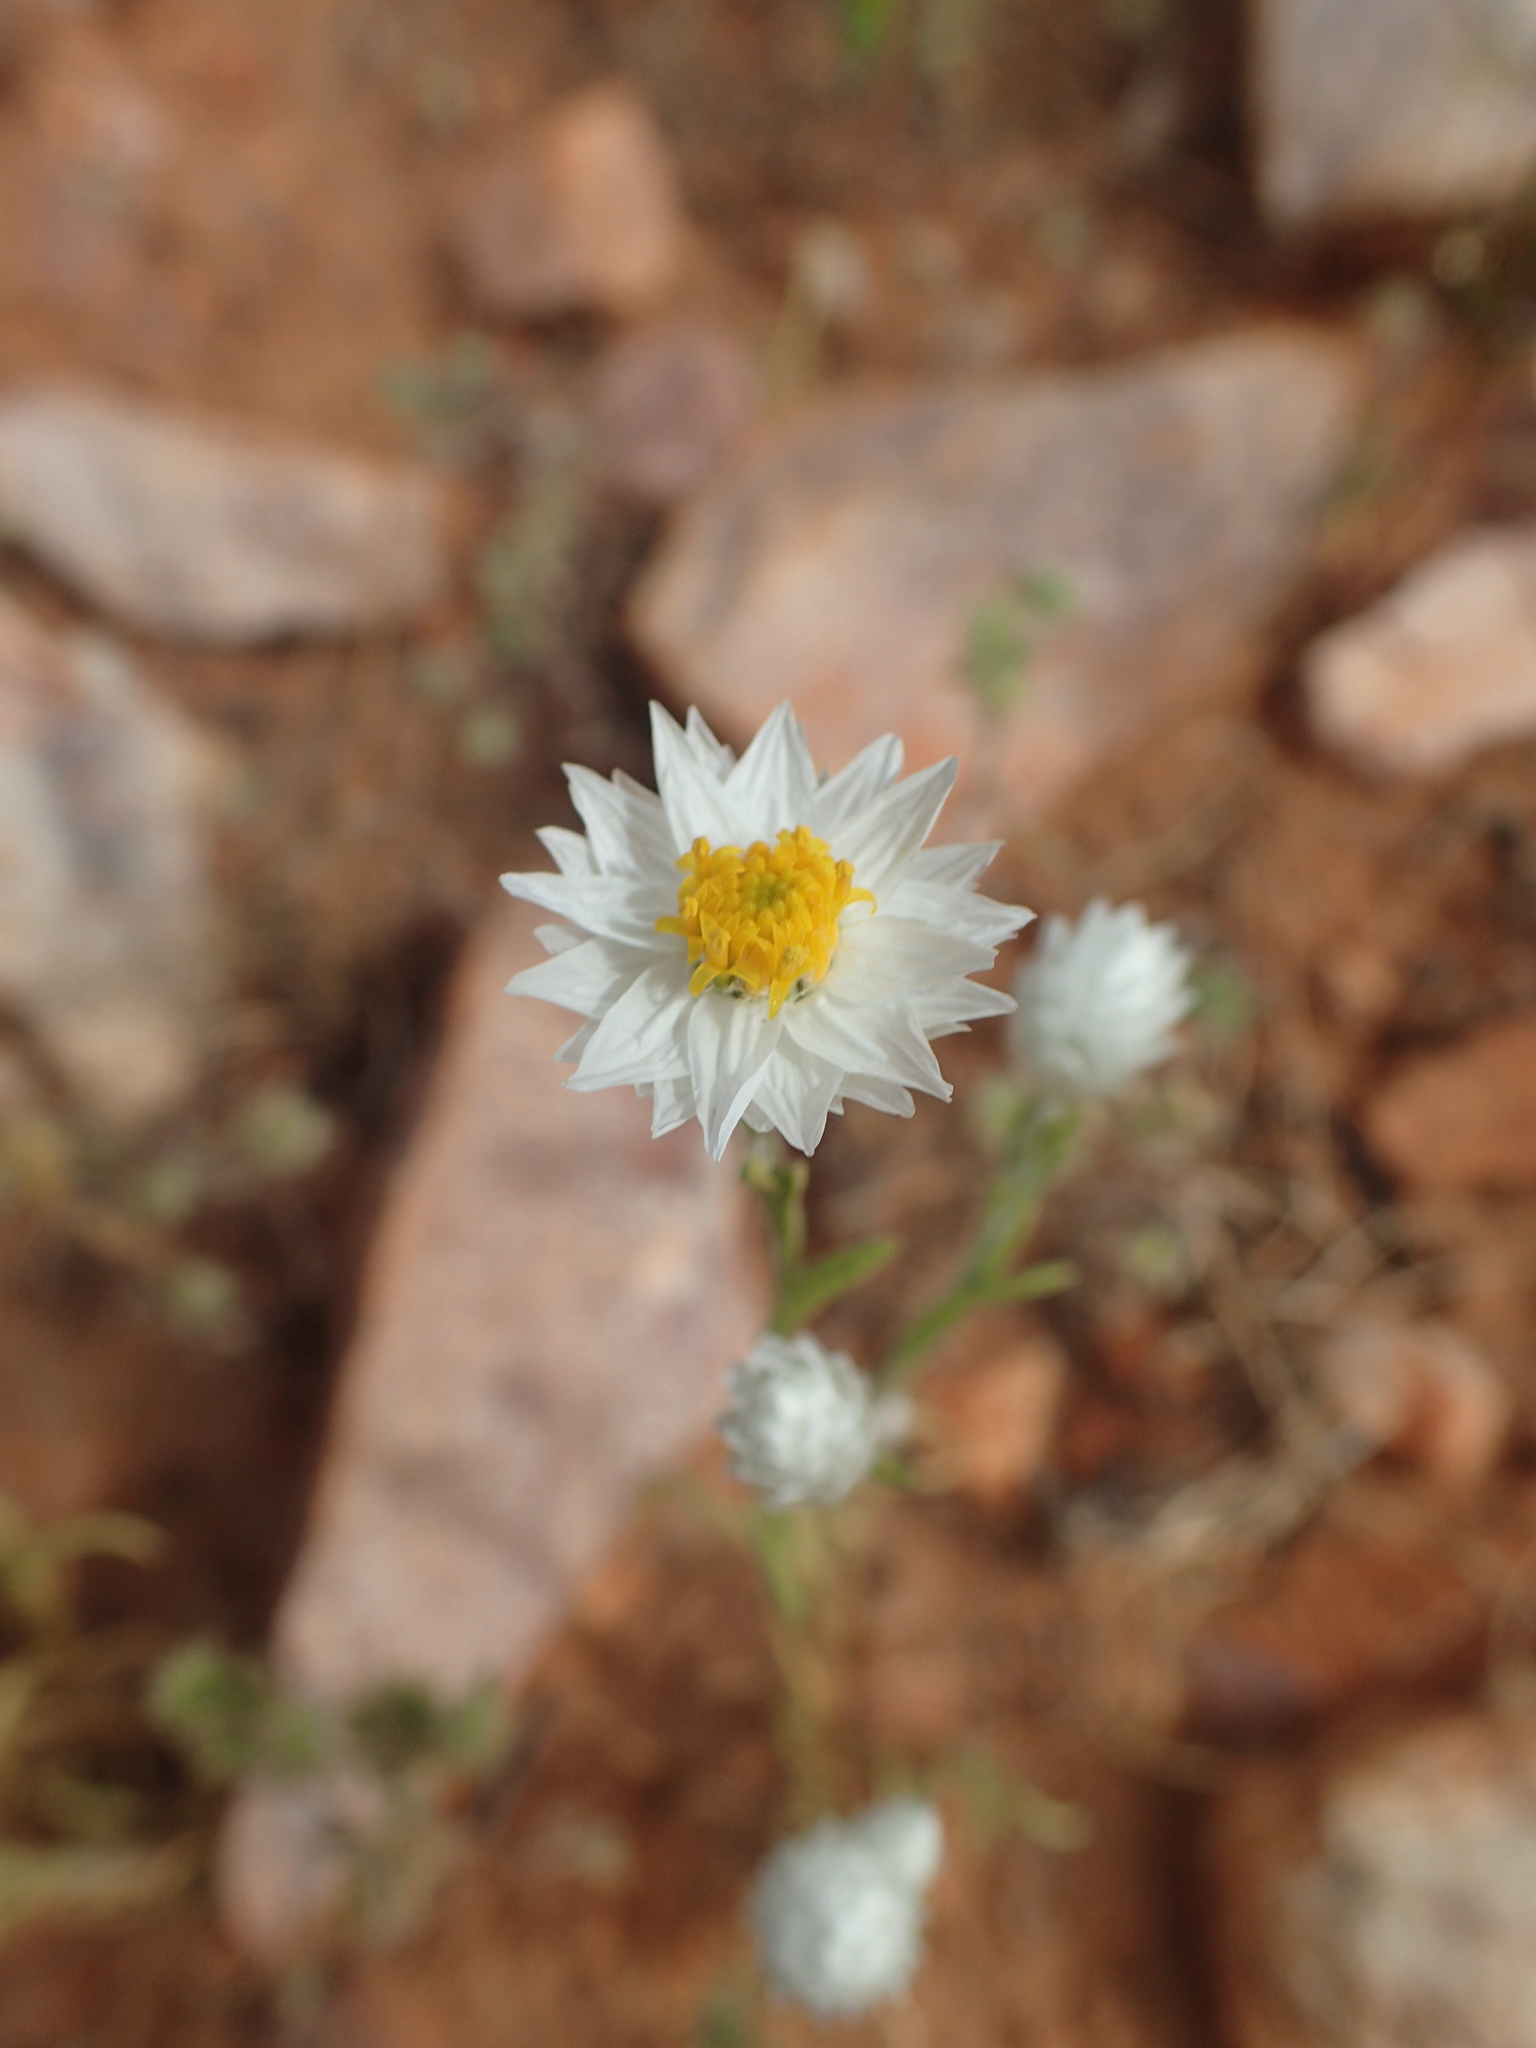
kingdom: Plantae
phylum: Tracheophyta
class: Magnoliopsida
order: Asterales
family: Asteraceae
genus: Rhodanthe
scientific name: Rhodanthe floribunda
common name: Flowery sunray
